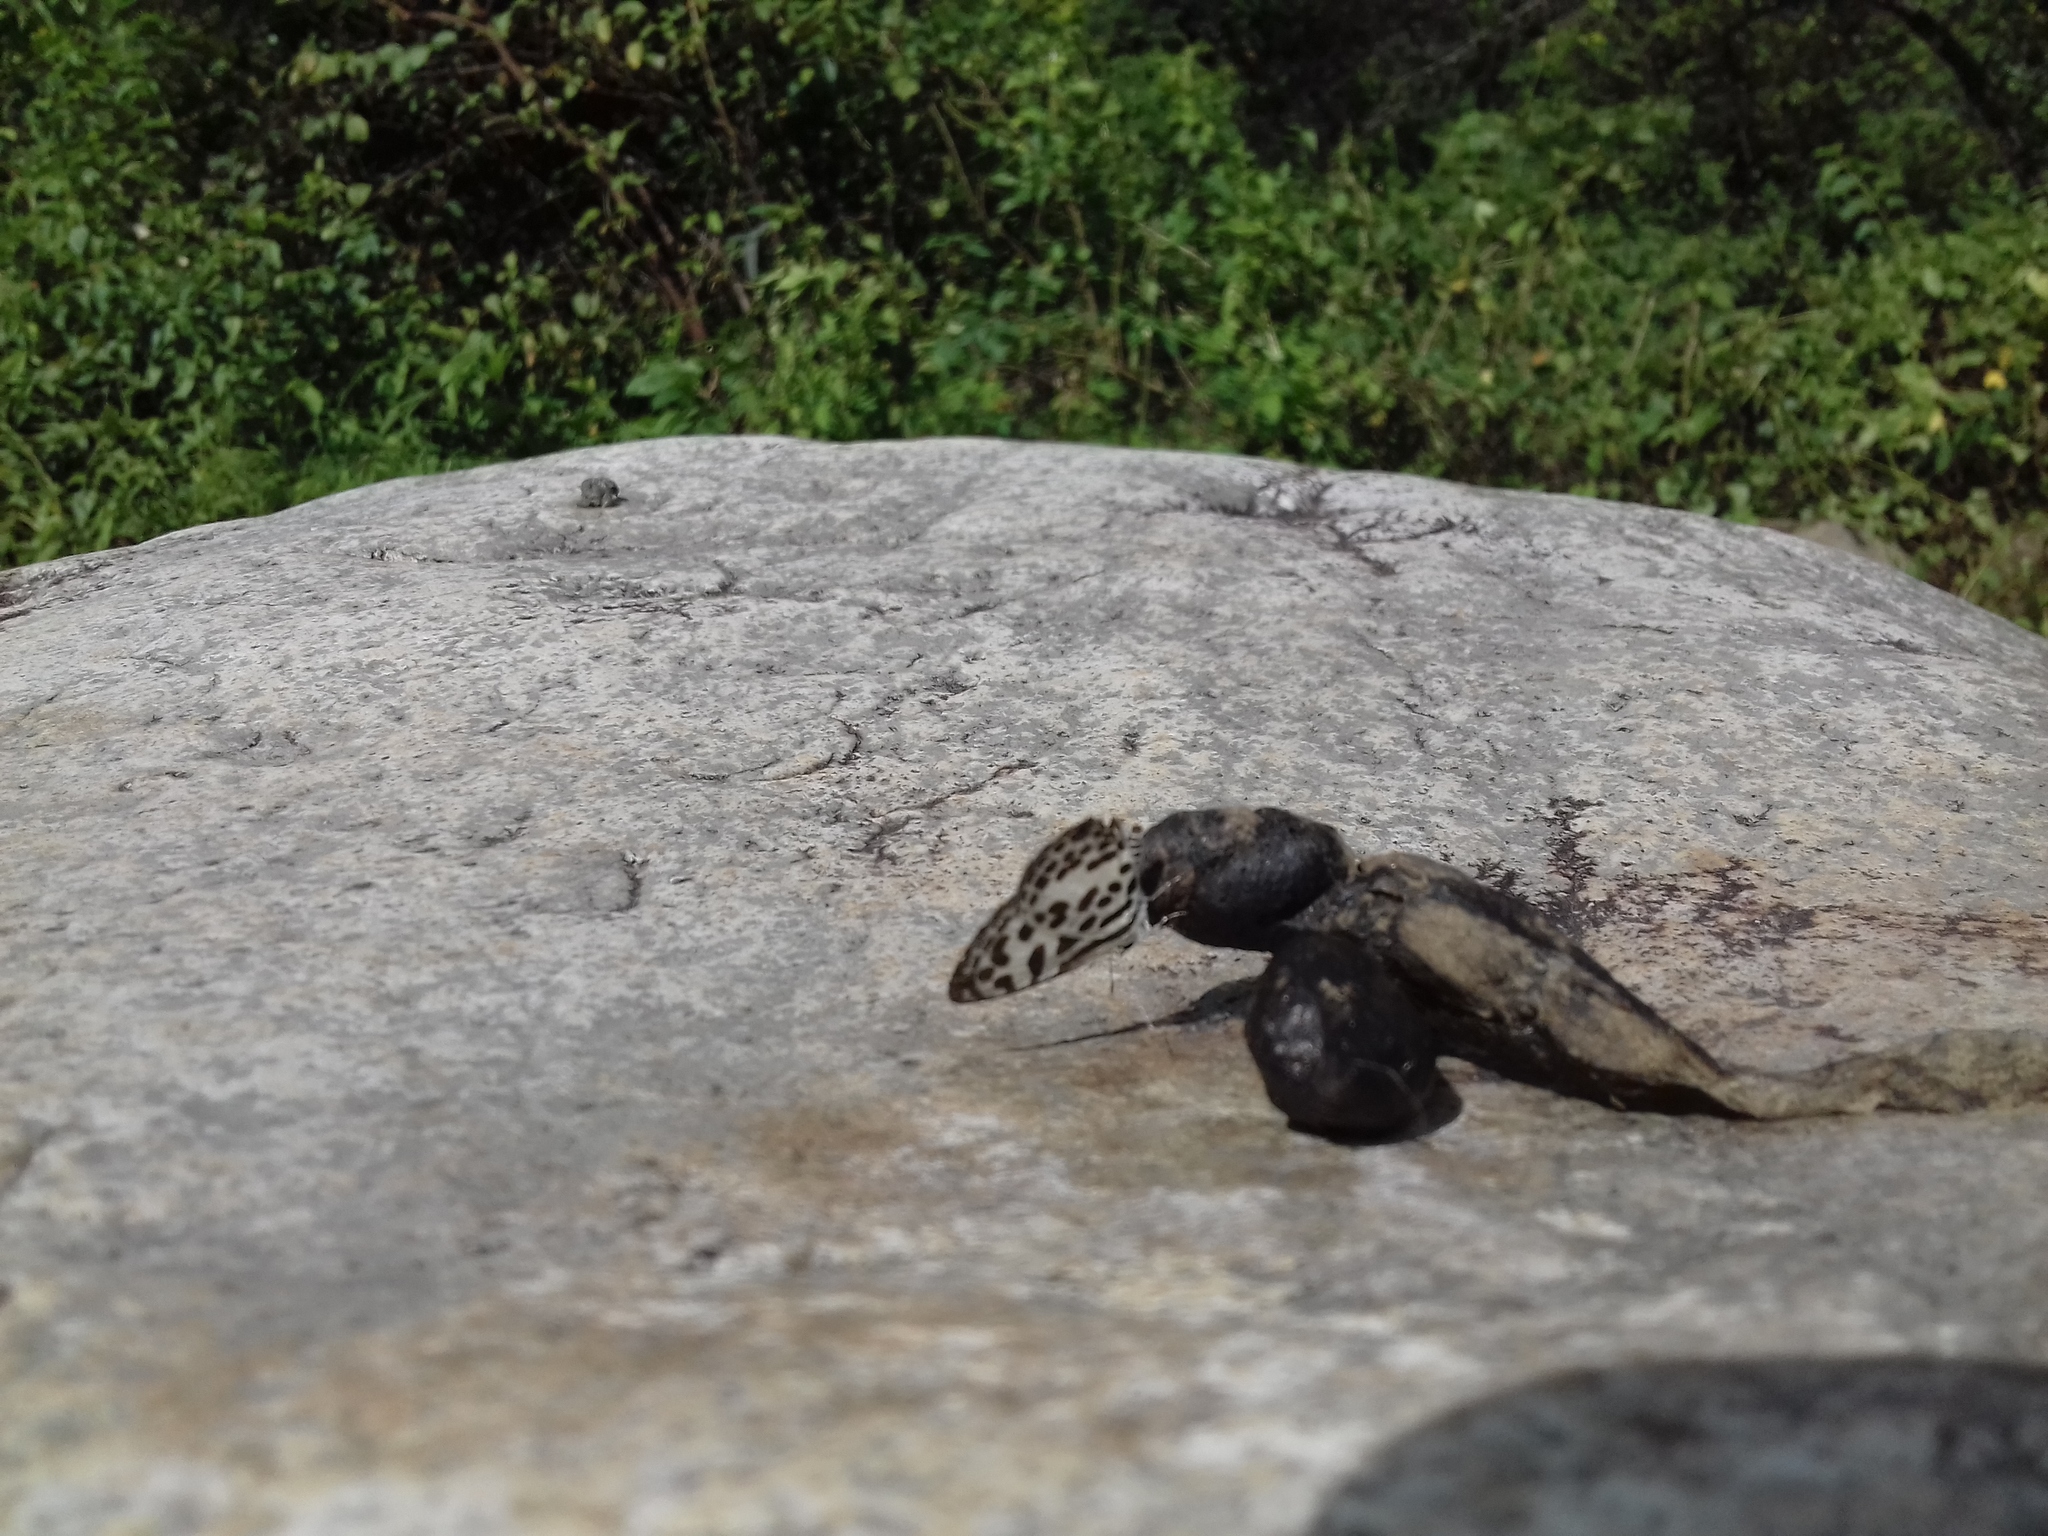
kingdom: Animalia
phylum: Arthropoda
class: Insecta
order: Lepidoptera
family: Lycaenidae
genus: Castalius
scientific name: Castalius rosimon
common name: Common pierrot
